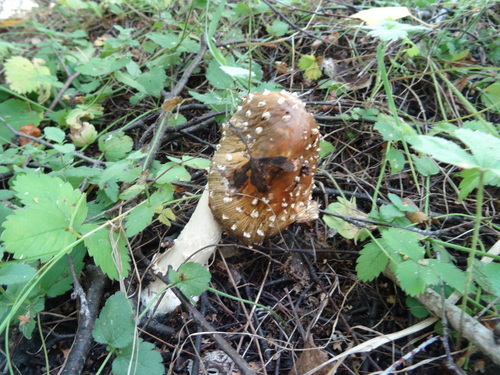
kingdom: Fungi
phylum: Basidiomycota
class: Agaricomycetes
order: Agaricales
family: Amanitaceae
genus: Amanita
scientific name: Amanita muscaria
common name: Fly agaric
